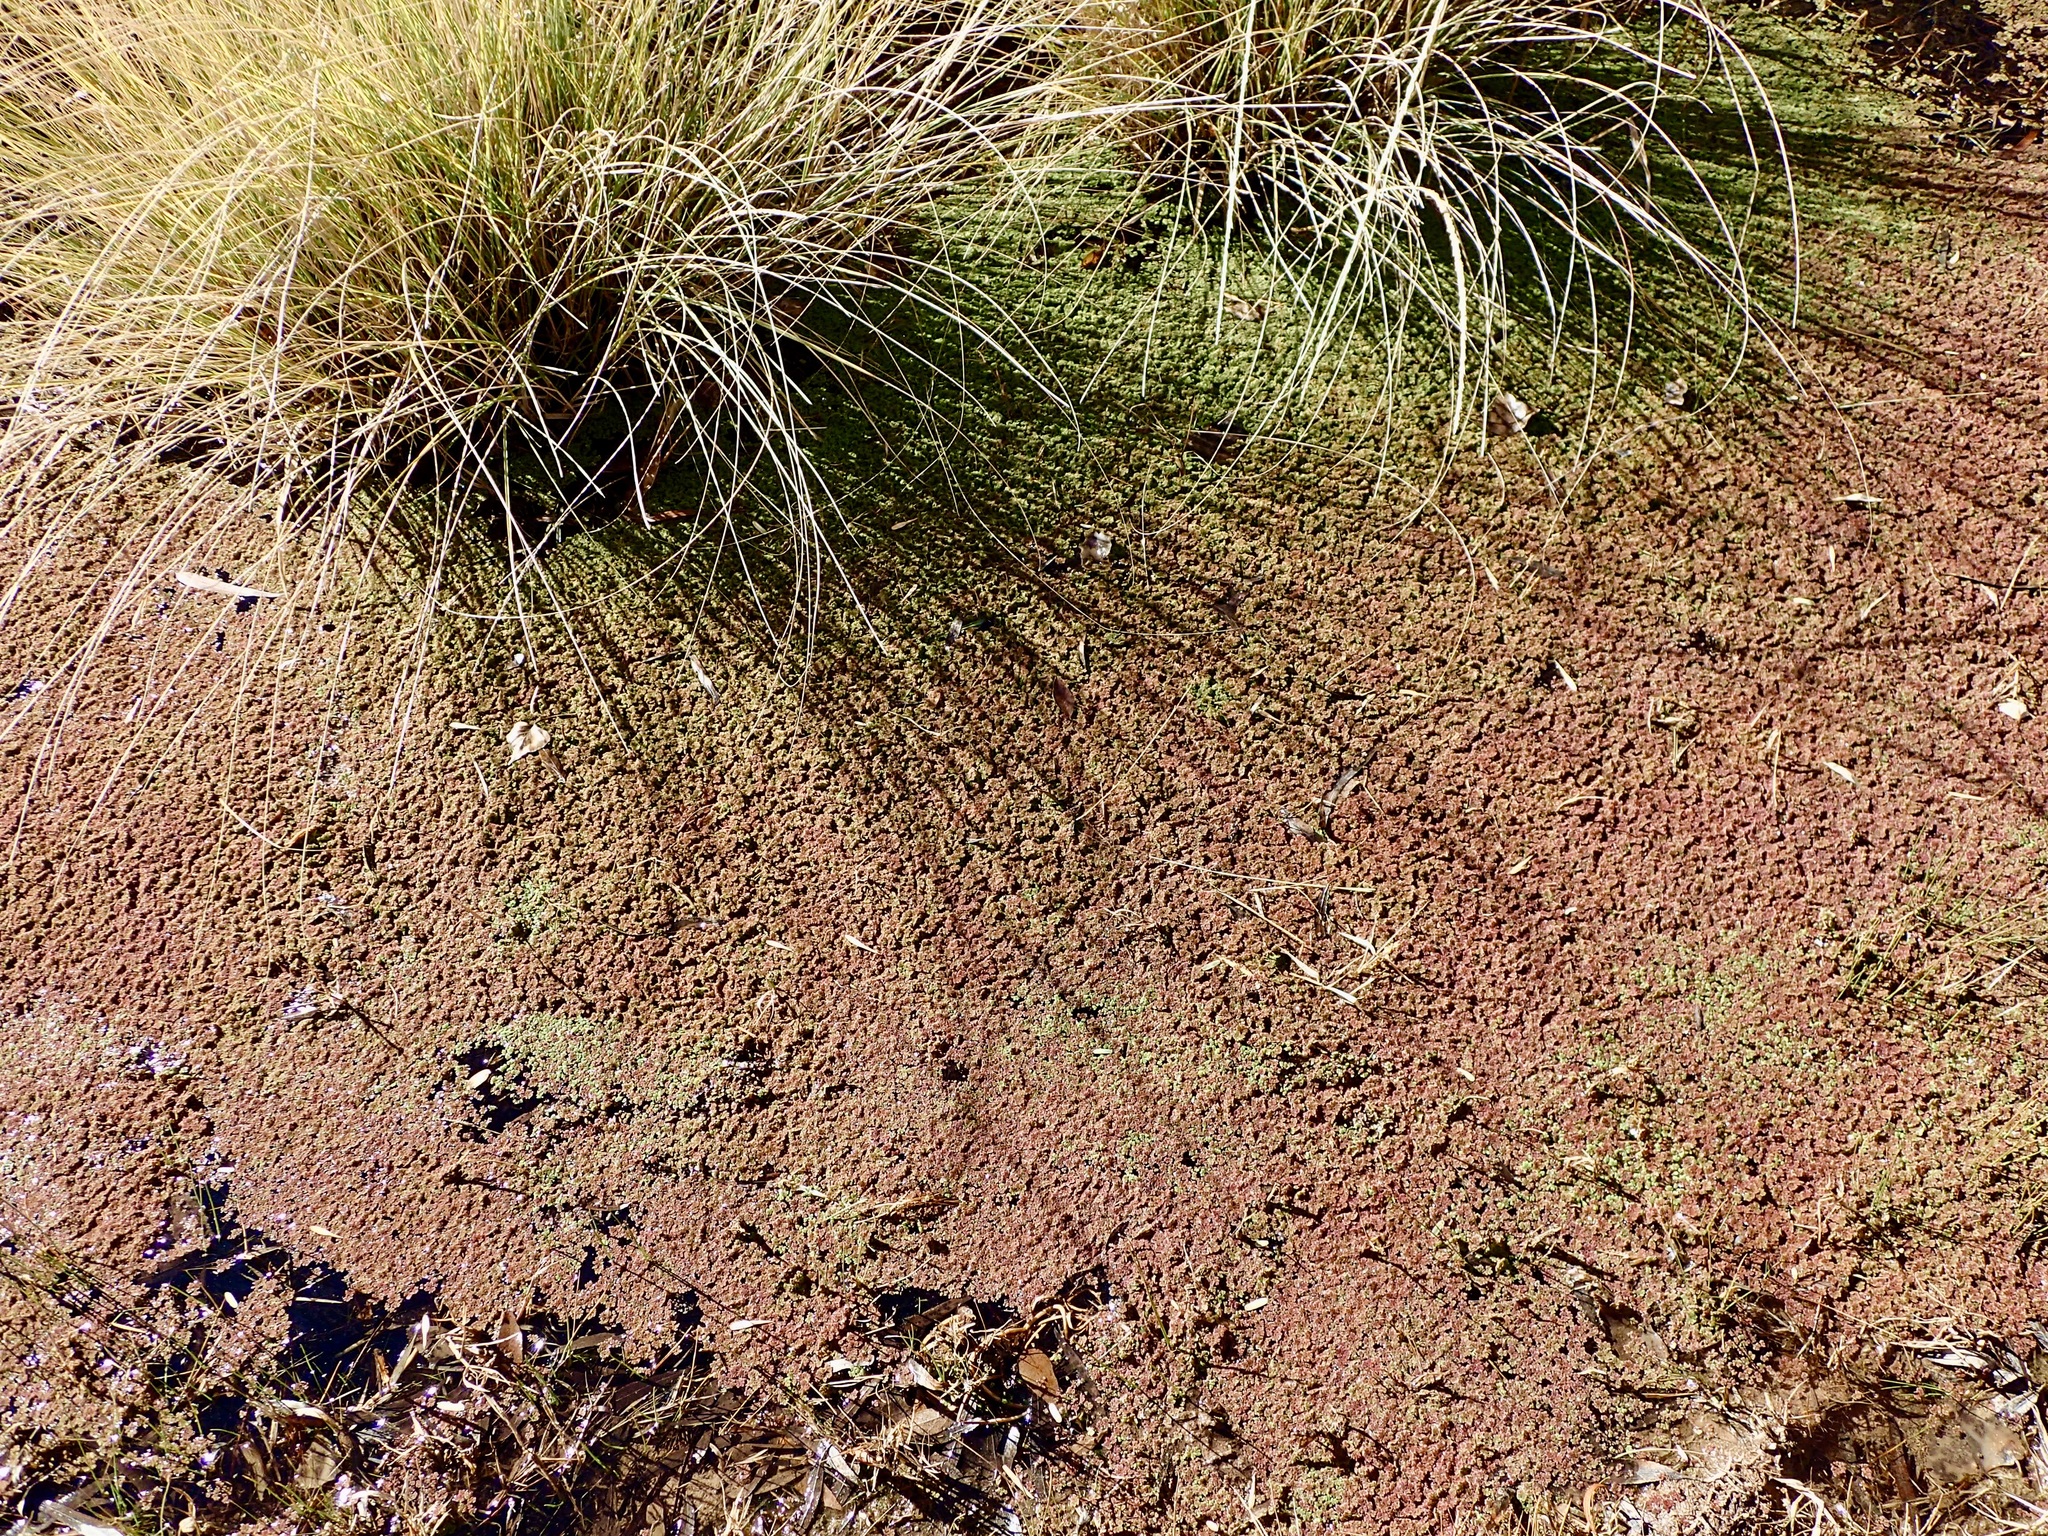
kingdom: Plantae
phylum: Tracheophyta
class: Polypodiopsida
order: Salviniales
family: Salviniaceae
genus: Azolla
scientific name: Azolla filiculoides
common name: Water fern
